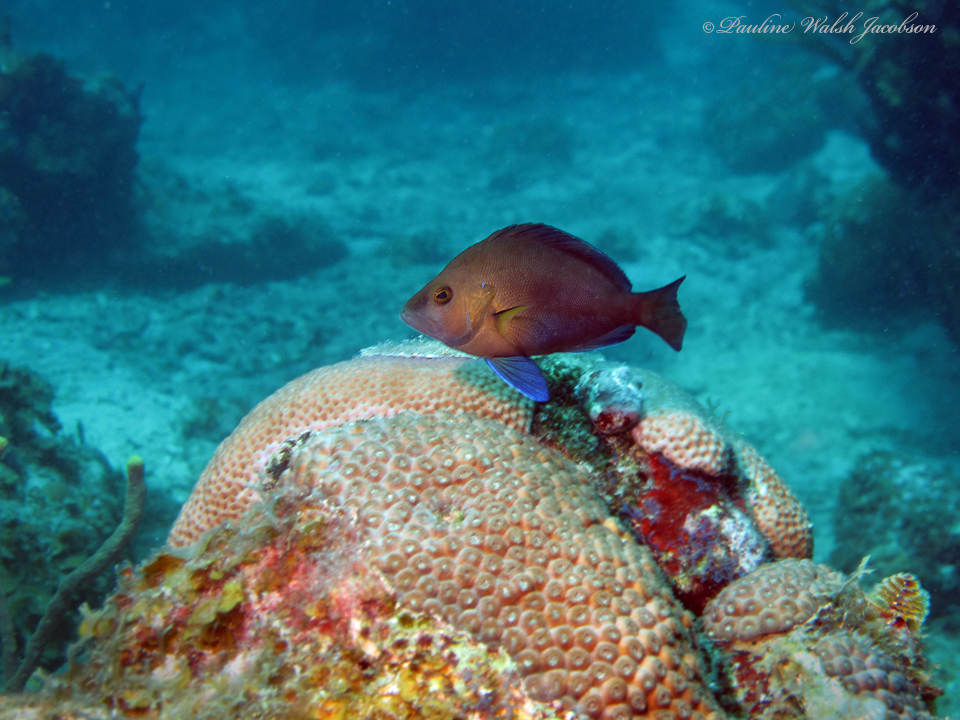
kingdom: Animalia
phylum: Chordata
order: Perciformes
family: Serranidae
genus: Hypoplectrus
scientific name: Hypoplectrus chlorurus
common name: Yellowtail hamlet
